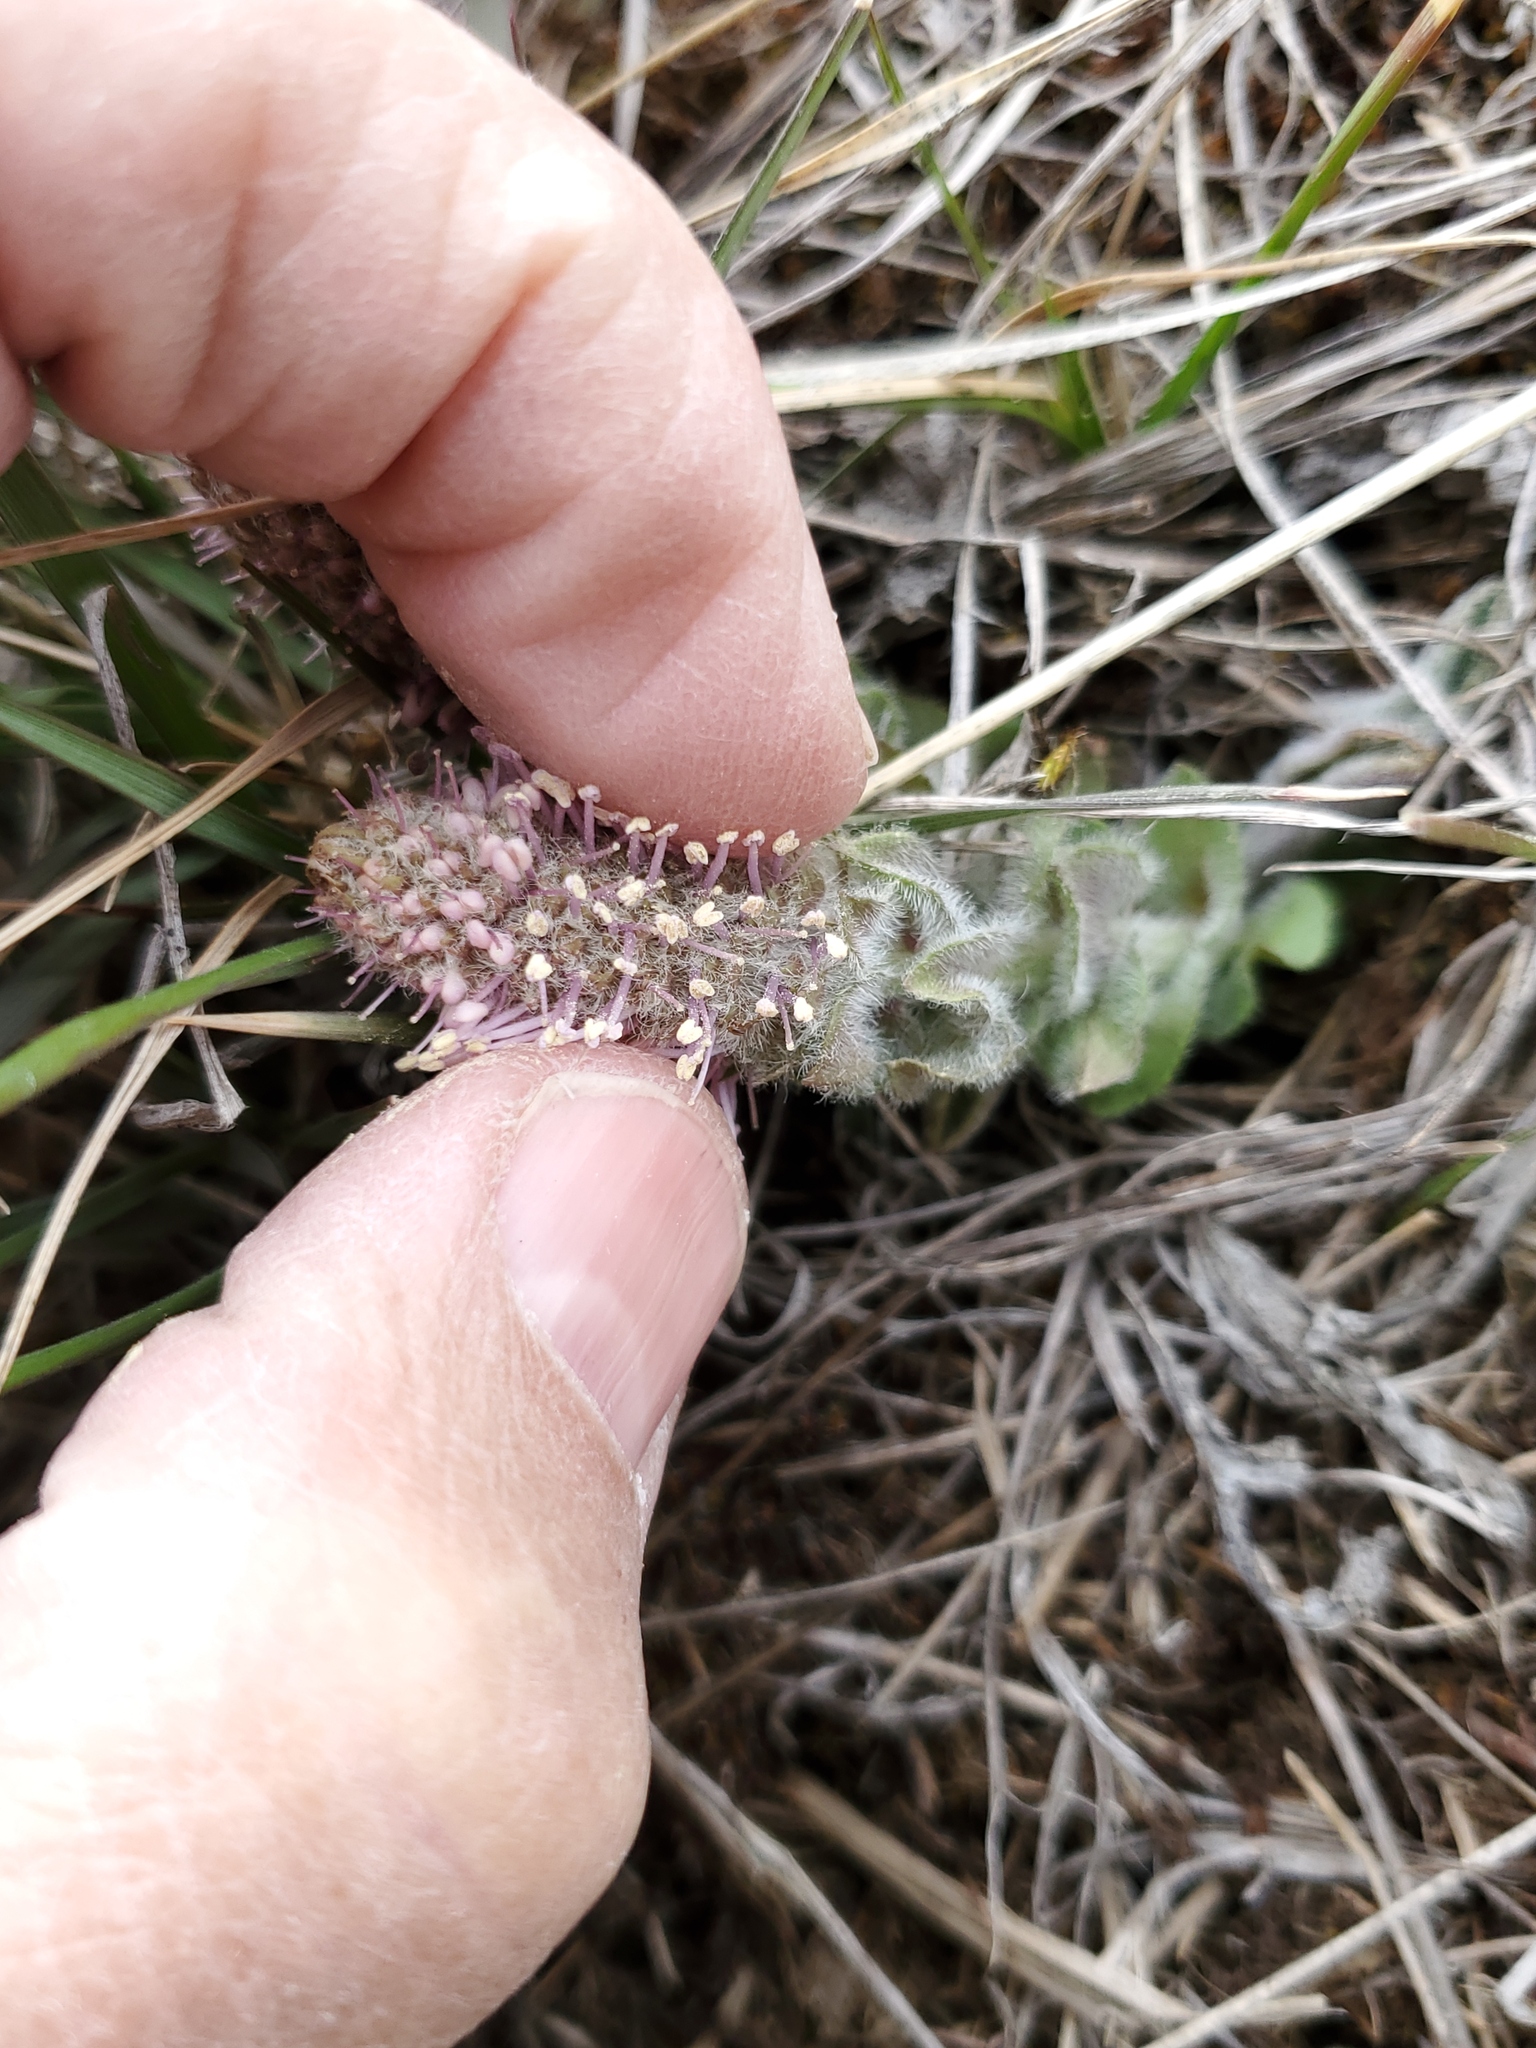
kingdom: Plantae
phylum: Tracheophyta
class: Magnoliopsida
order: Lamiales
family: Plantaginaceae
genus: Synthyris
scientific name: Synthyris wyomingensis
